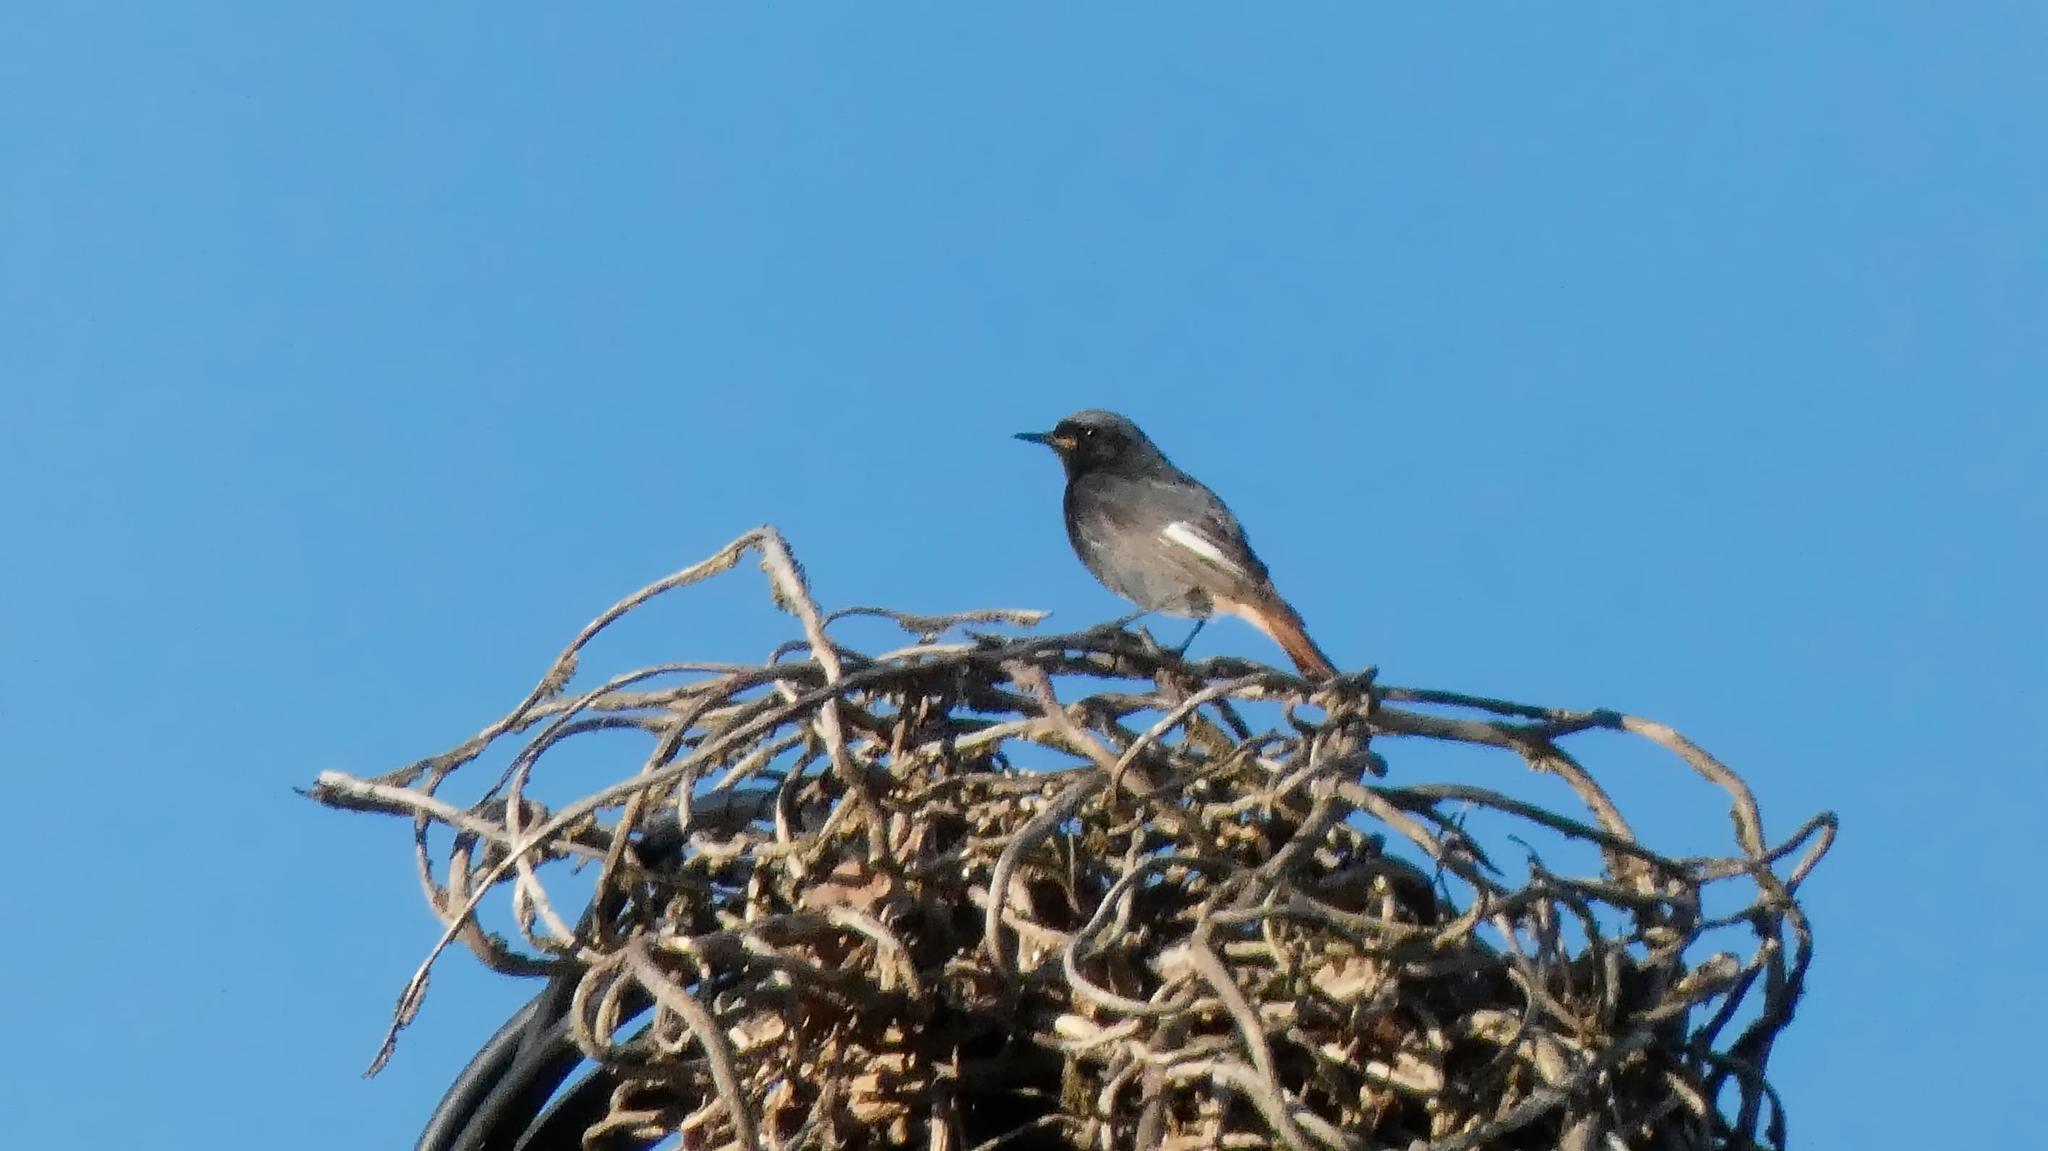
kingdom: Animalia
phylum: Chordata
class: Aves
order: Passeriformes
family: Muscicapidae
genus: Phoenicurus
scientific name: Phoenicurus ochruros
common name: Black redstart
